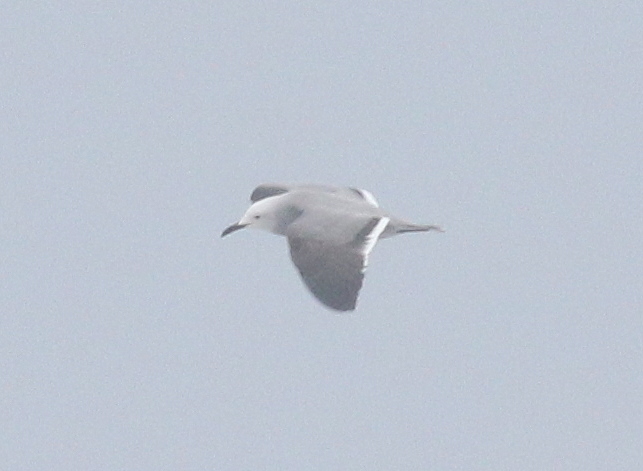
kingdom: Animalia
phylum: Chordata
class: Aves
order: Charadriiformes
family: Laridae
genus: Leucophaeus
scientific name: Leucophaeus modestus
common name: Gray gull
